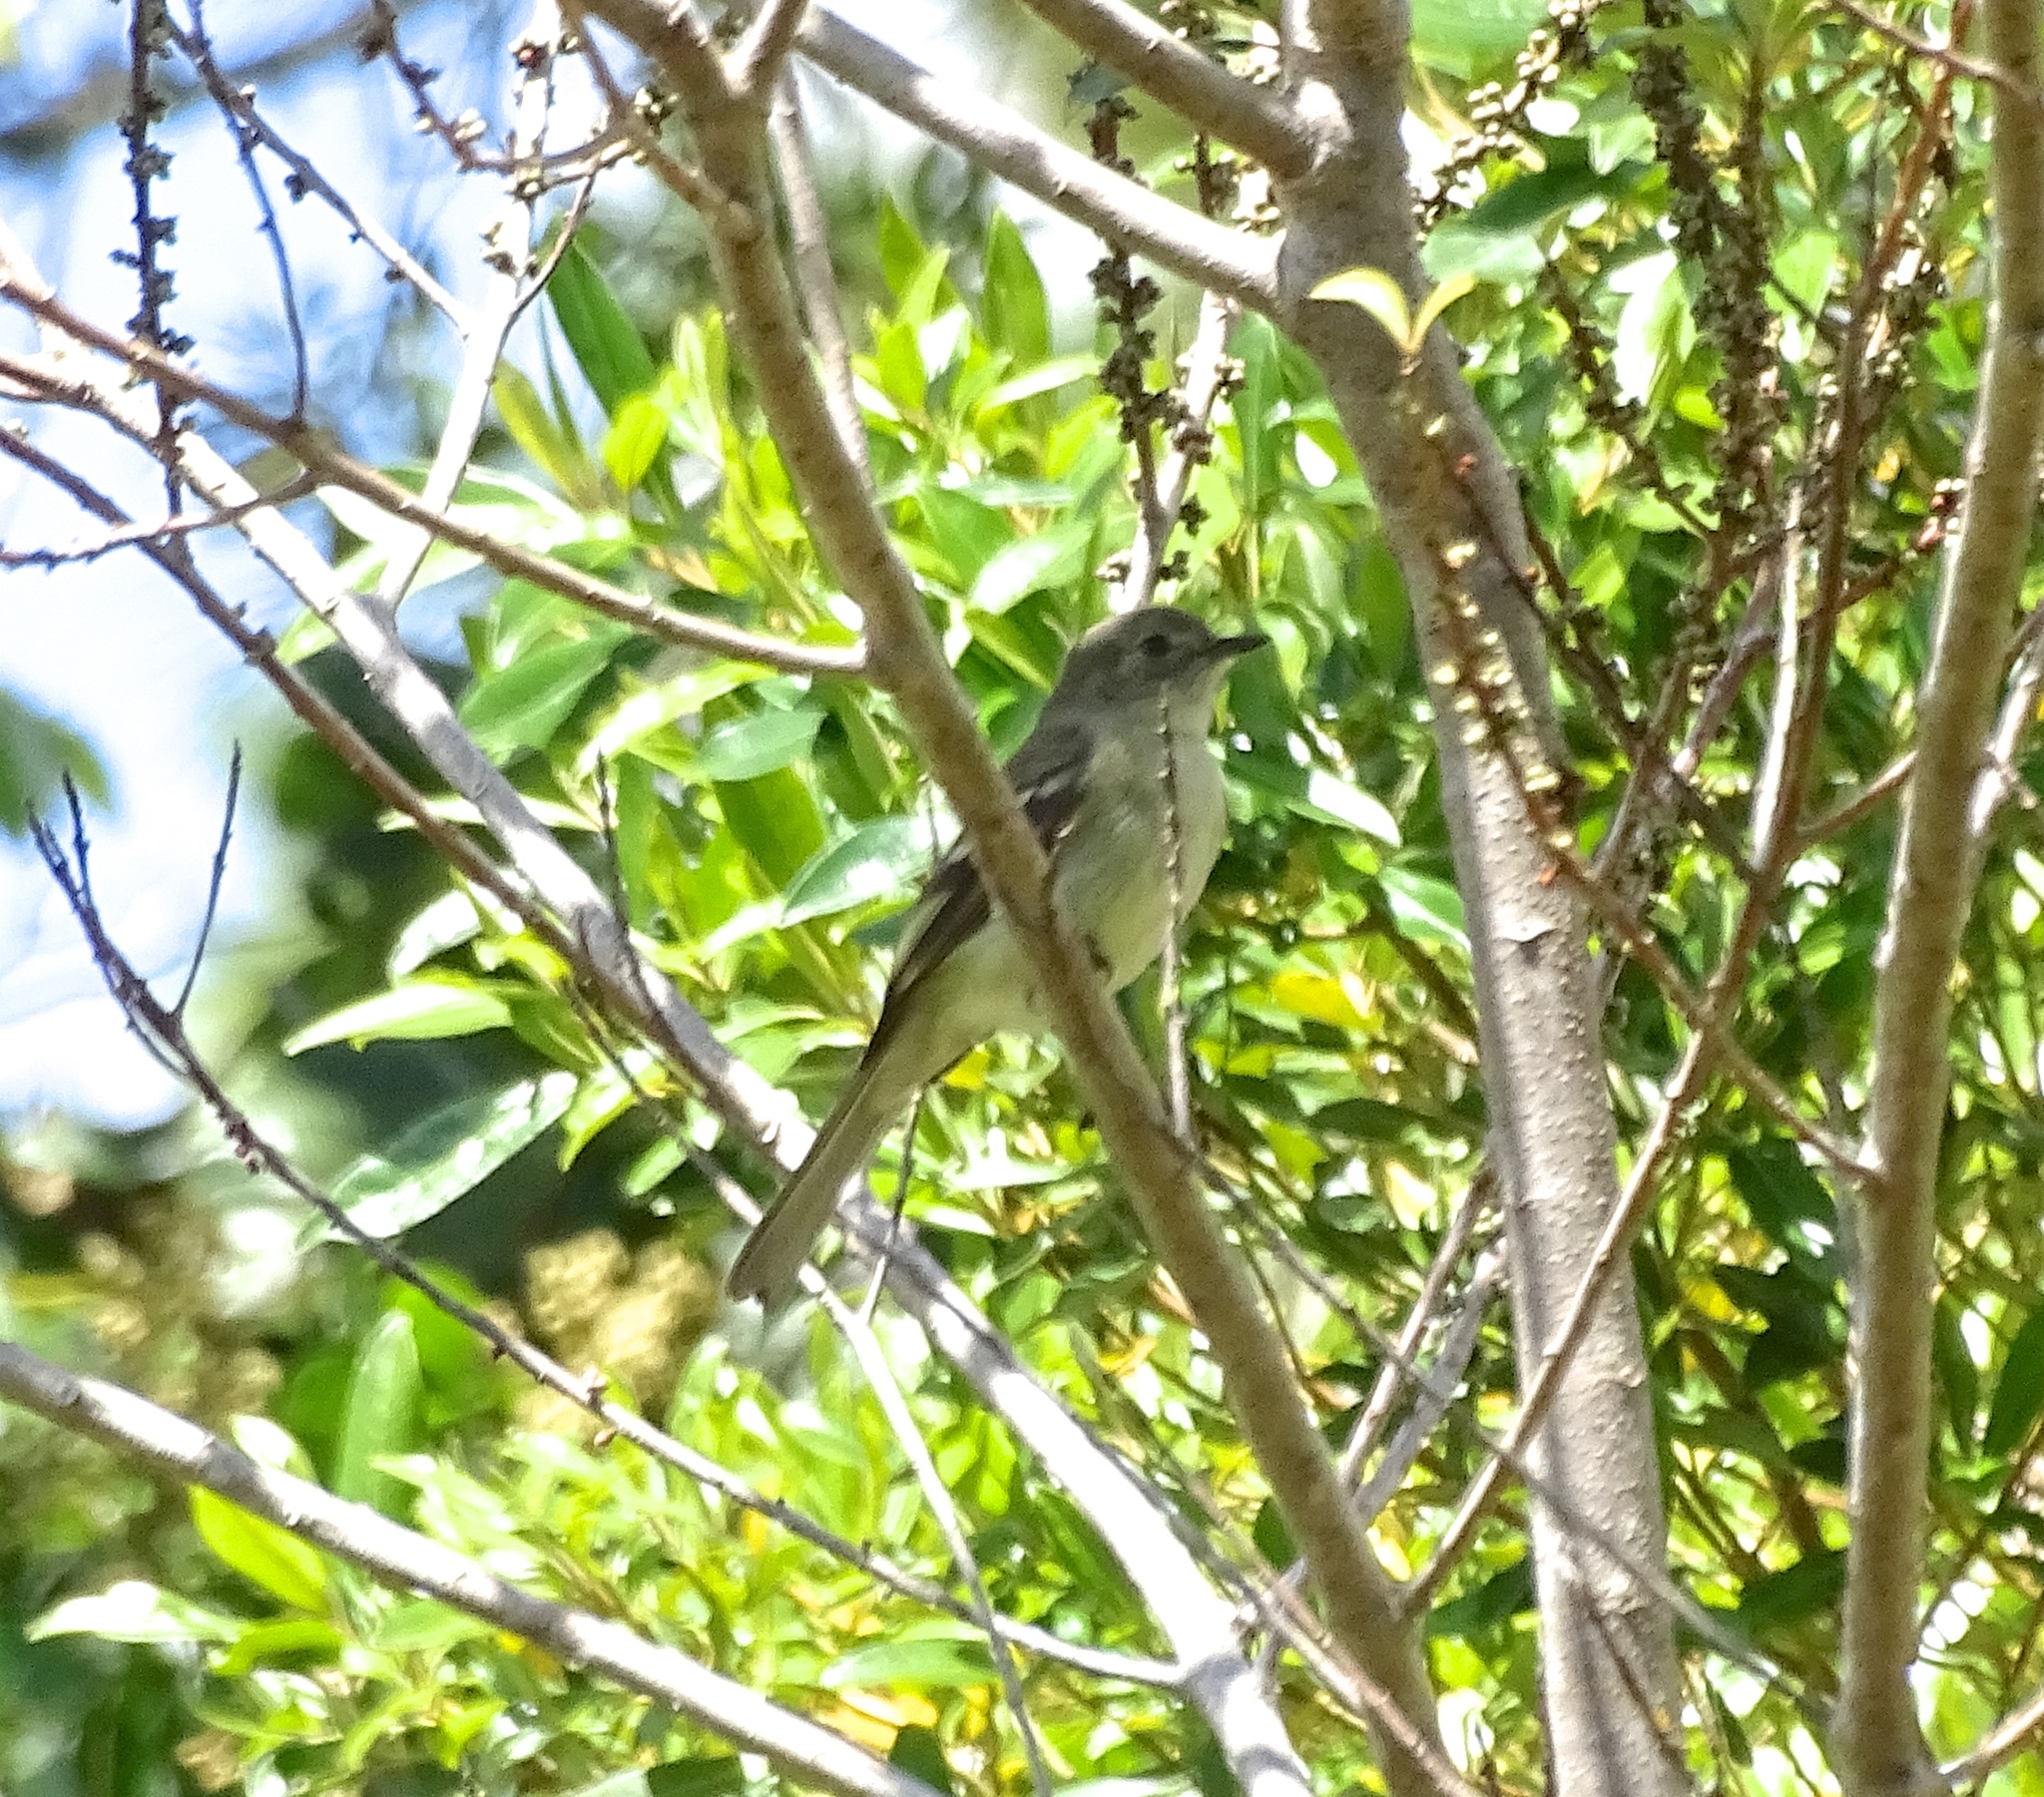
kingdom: Animalia
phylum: Chordata
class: Aves
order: Passeriformes
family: Tyrannidae
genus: Elaenia
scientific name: Elaenia fallax
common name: Greater antillean elaenia
